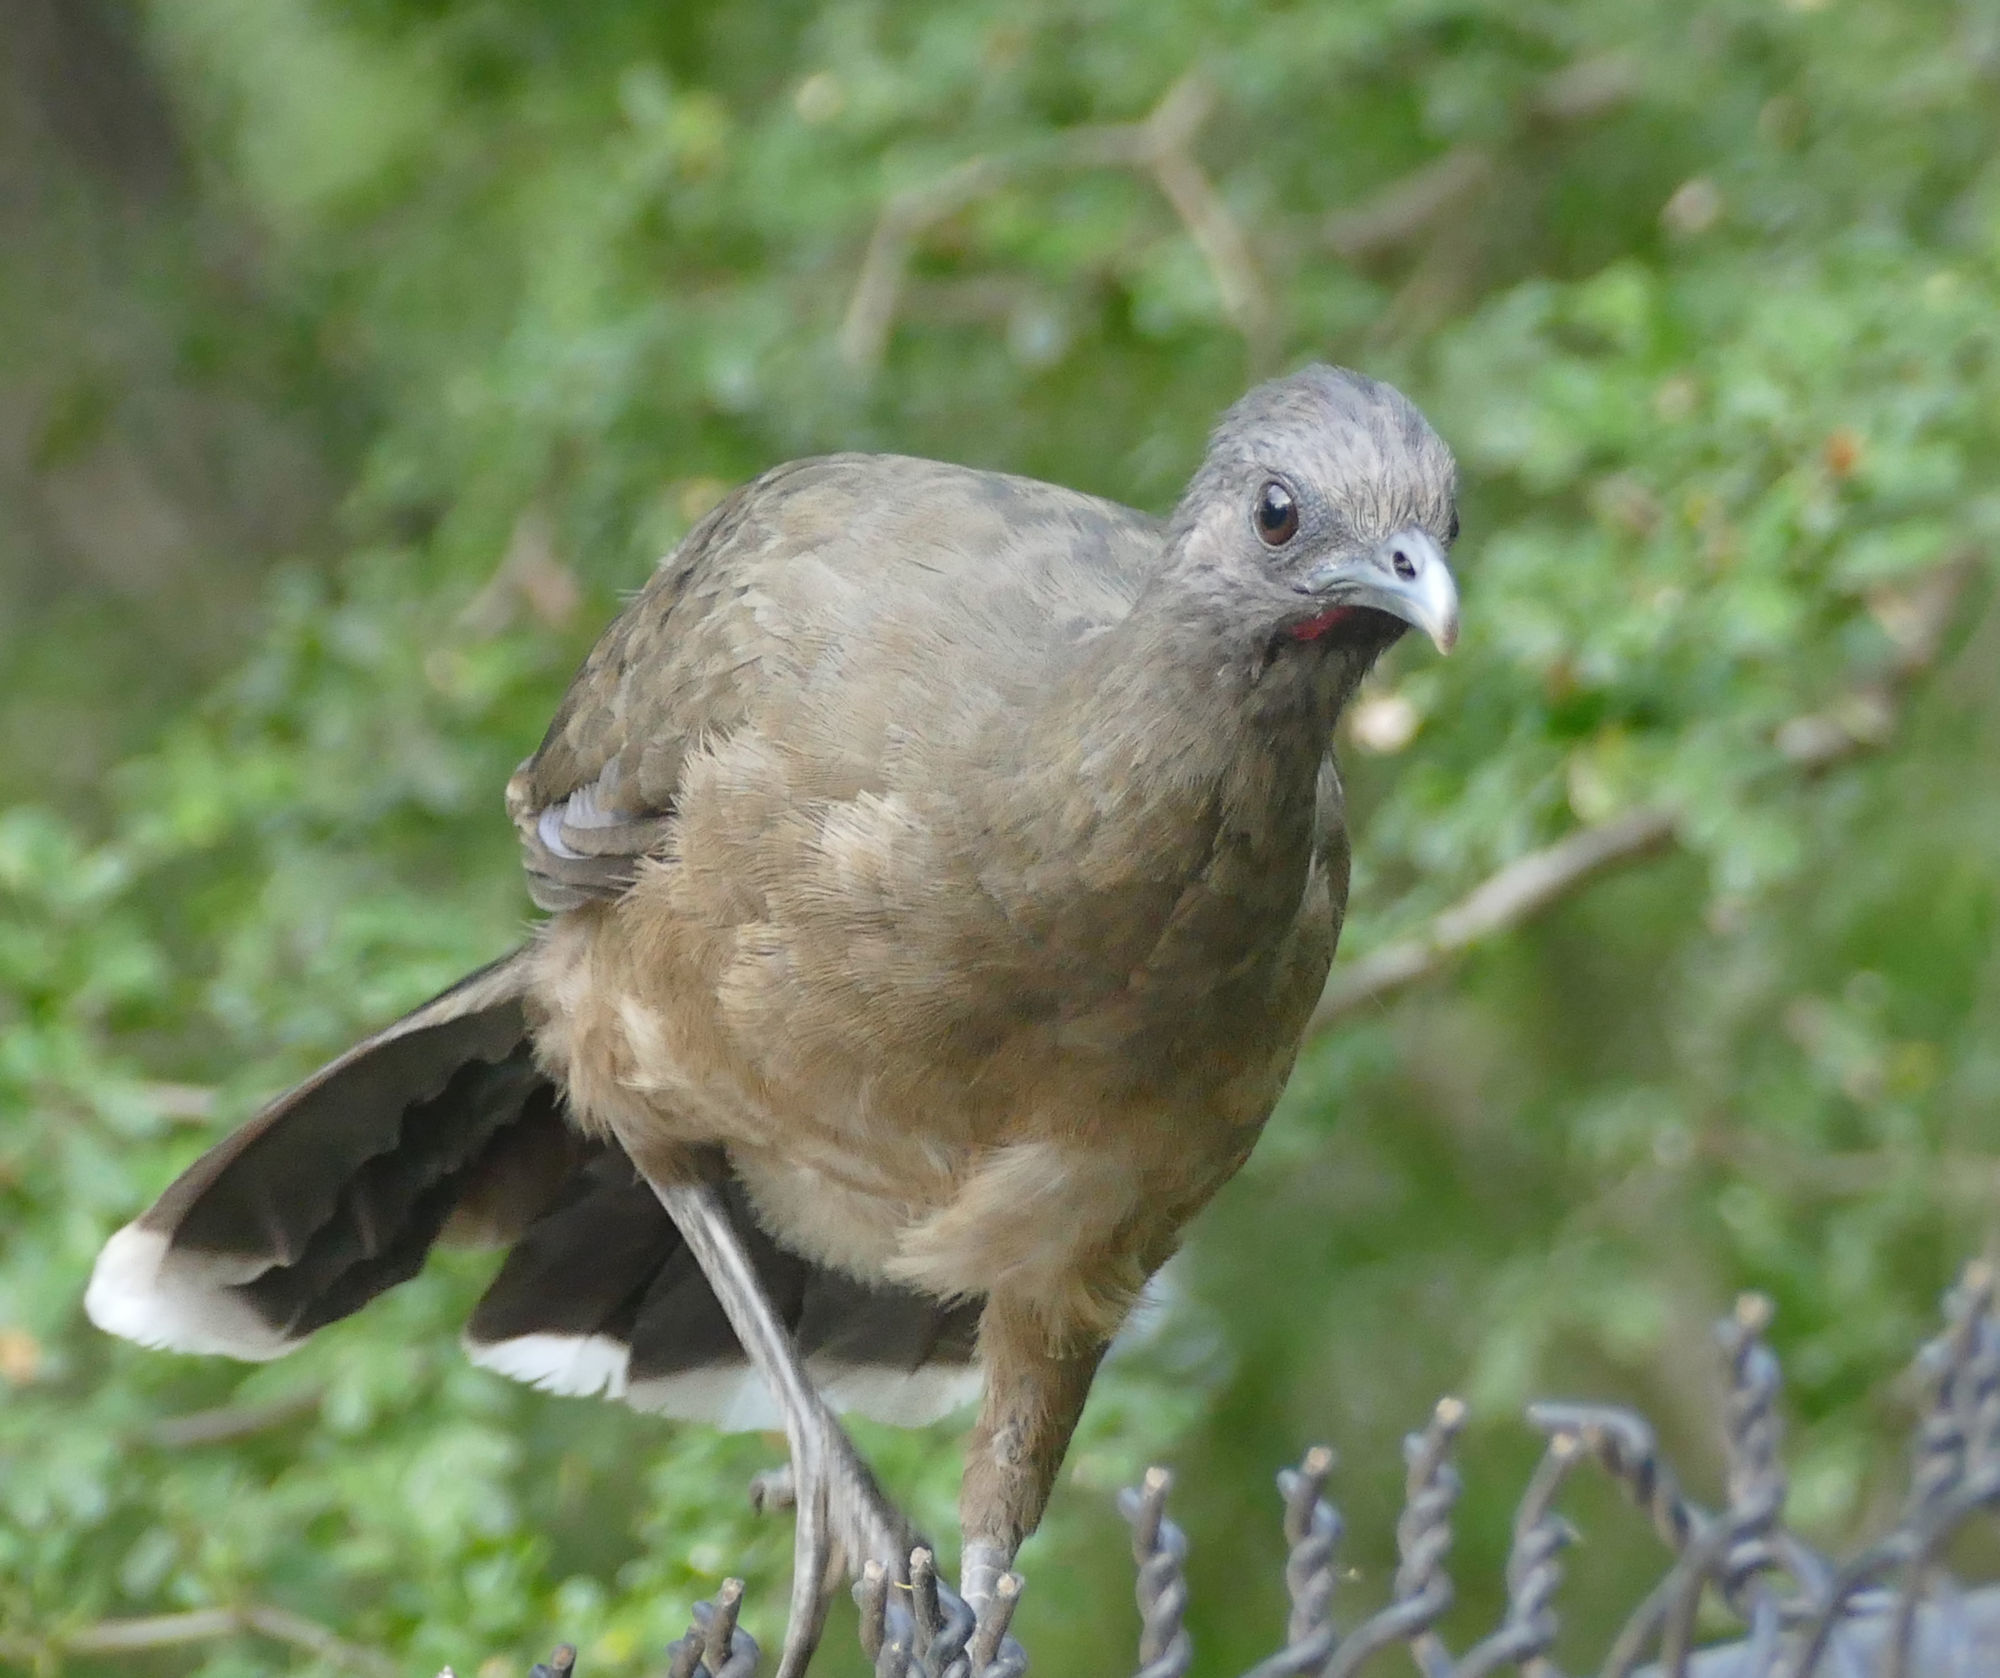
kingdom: Animalia
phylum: Chordata
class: Aves
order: Galliformes
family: Cracidae
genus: Ortalis
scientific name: Ortalis vetula
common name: Plain chachalaca
